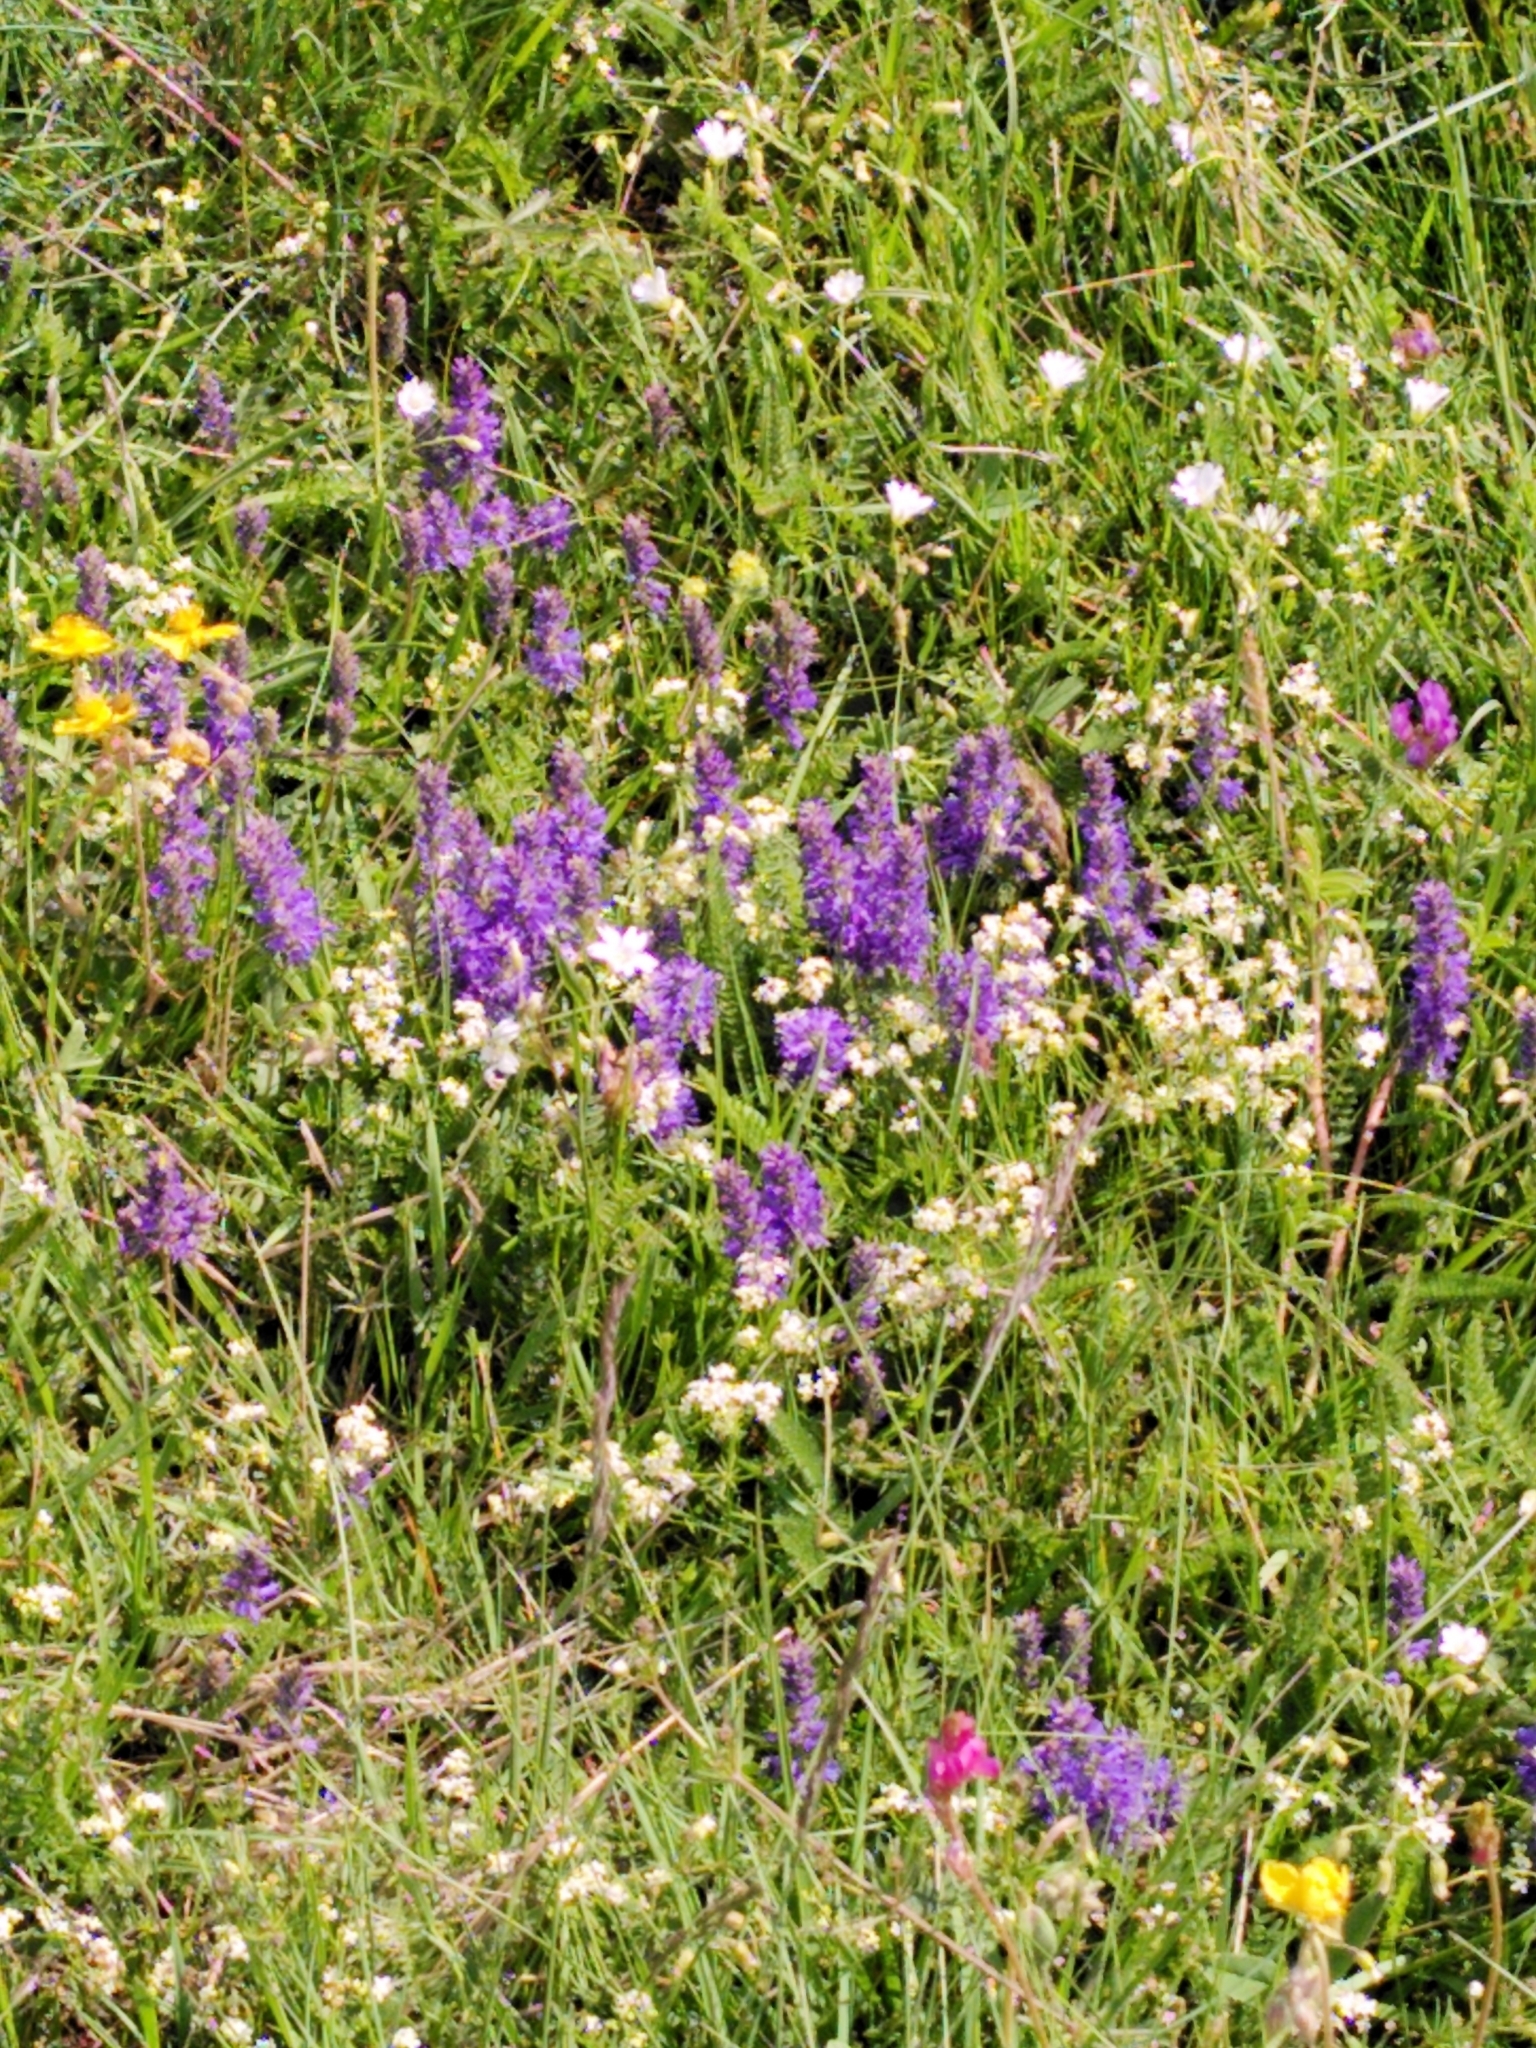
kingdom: Plantae
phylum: Tracheophyta
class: Magnoliopsida
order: Lamiales
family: Plantaginaceae
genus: Veronica
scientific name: Veronica allionii
